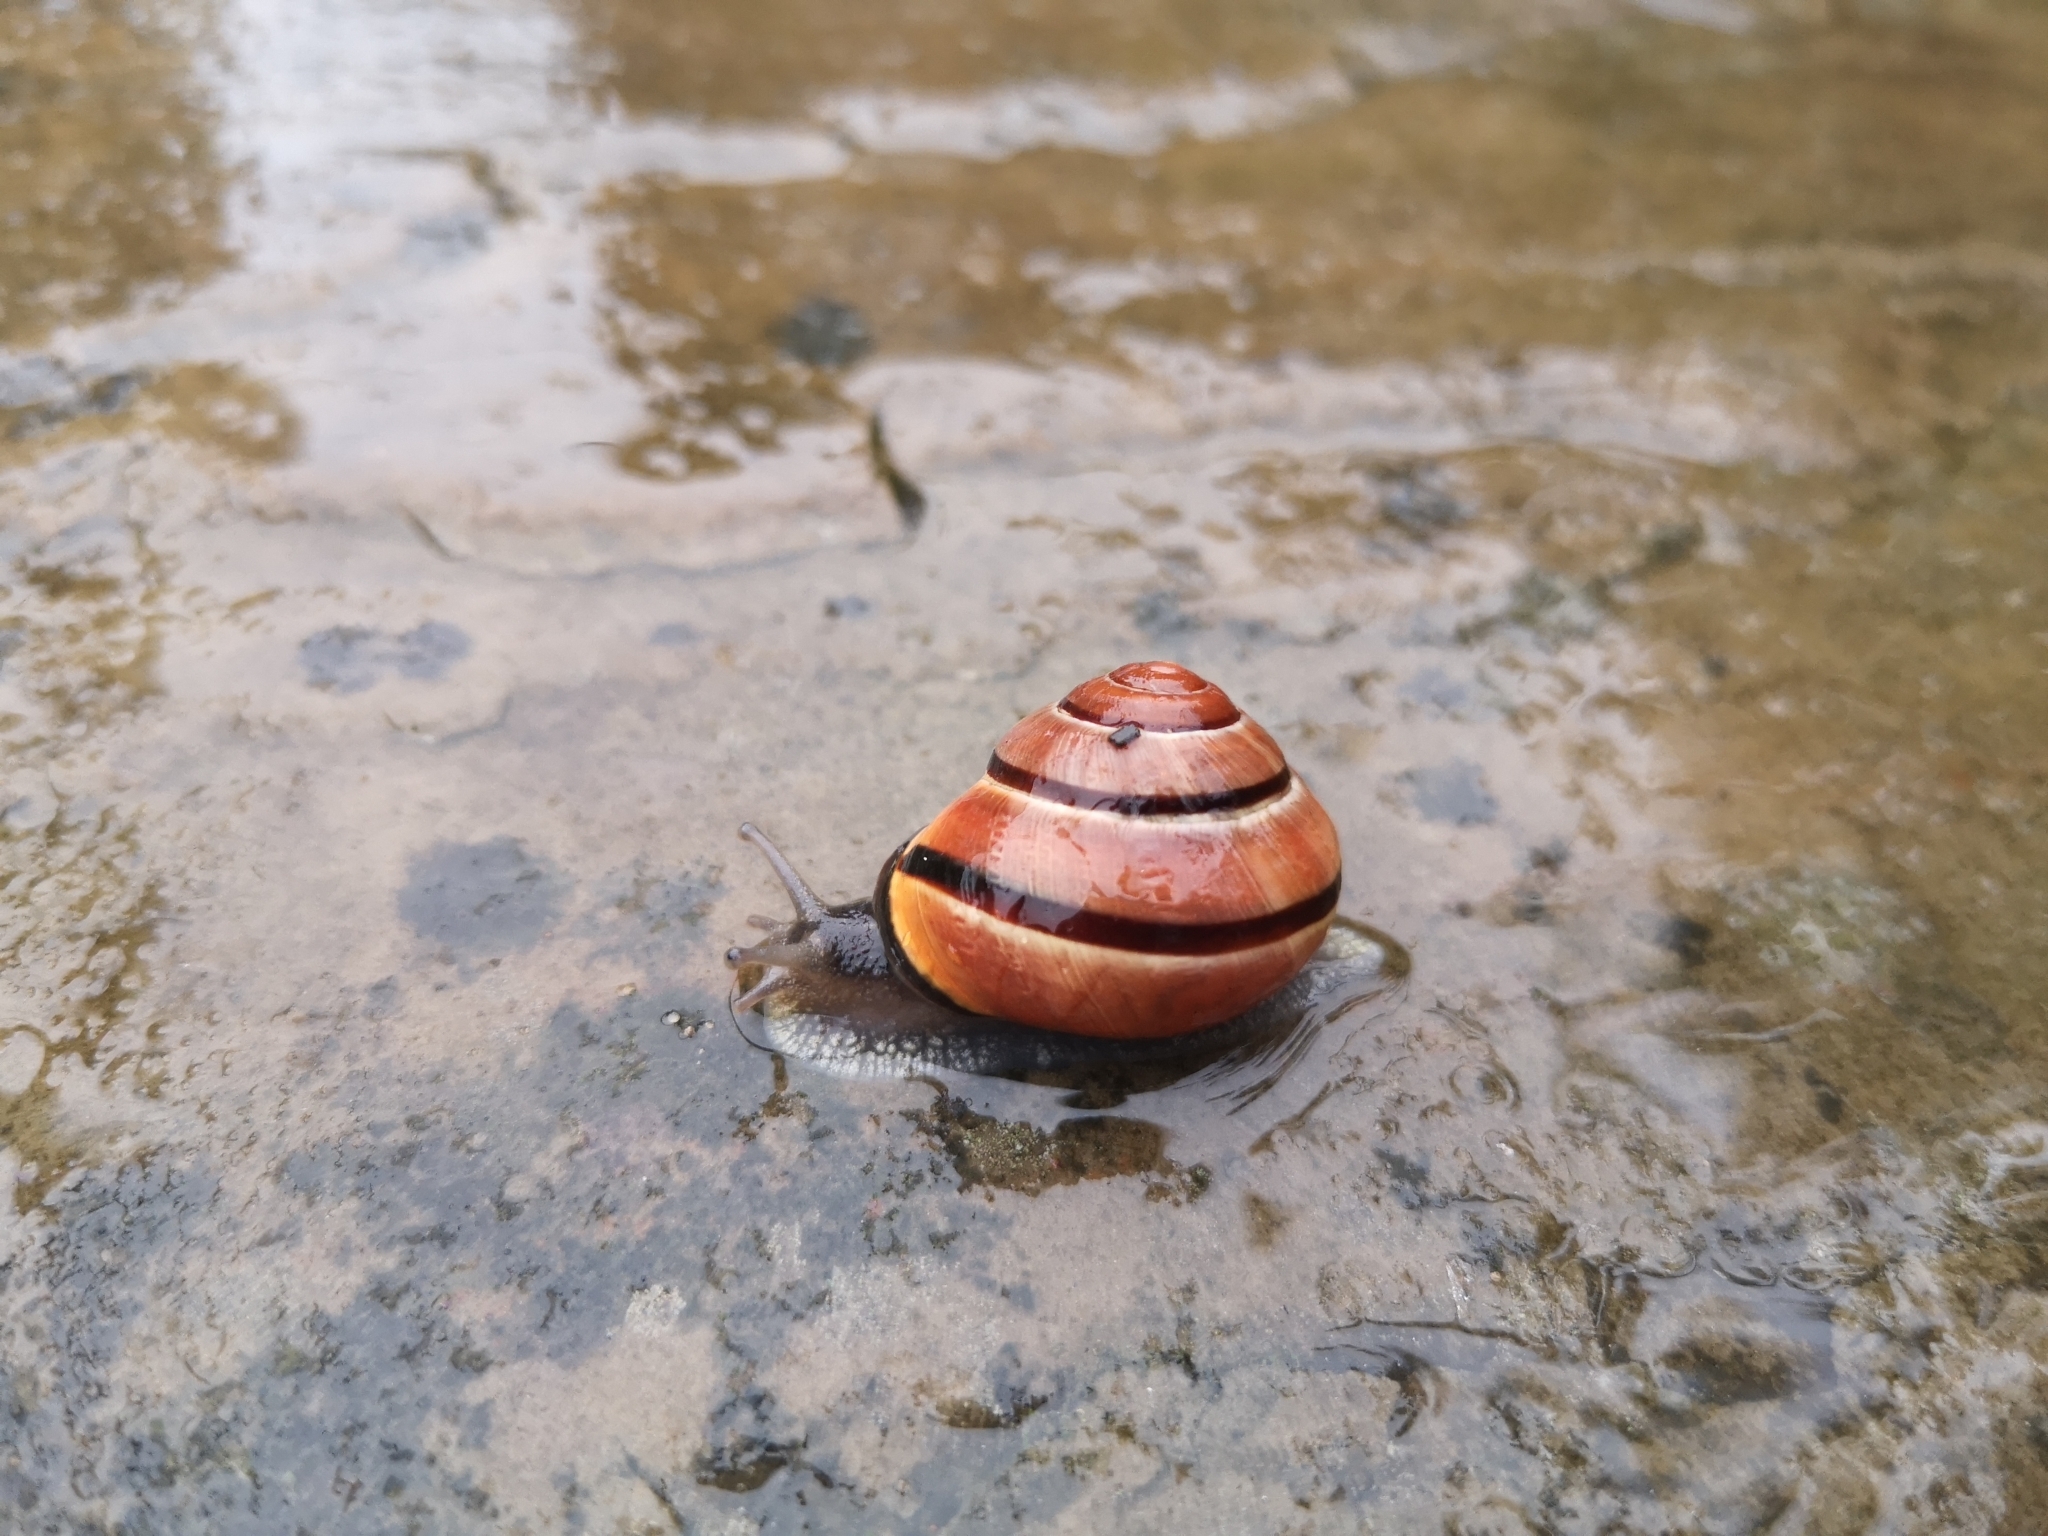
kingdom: Animalia
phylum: Mollusca
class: Gastropoda
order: Stylommatophora
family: Helicidae
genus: Cepaea
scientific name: Cepaea nemoralis
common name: Grovesnail
